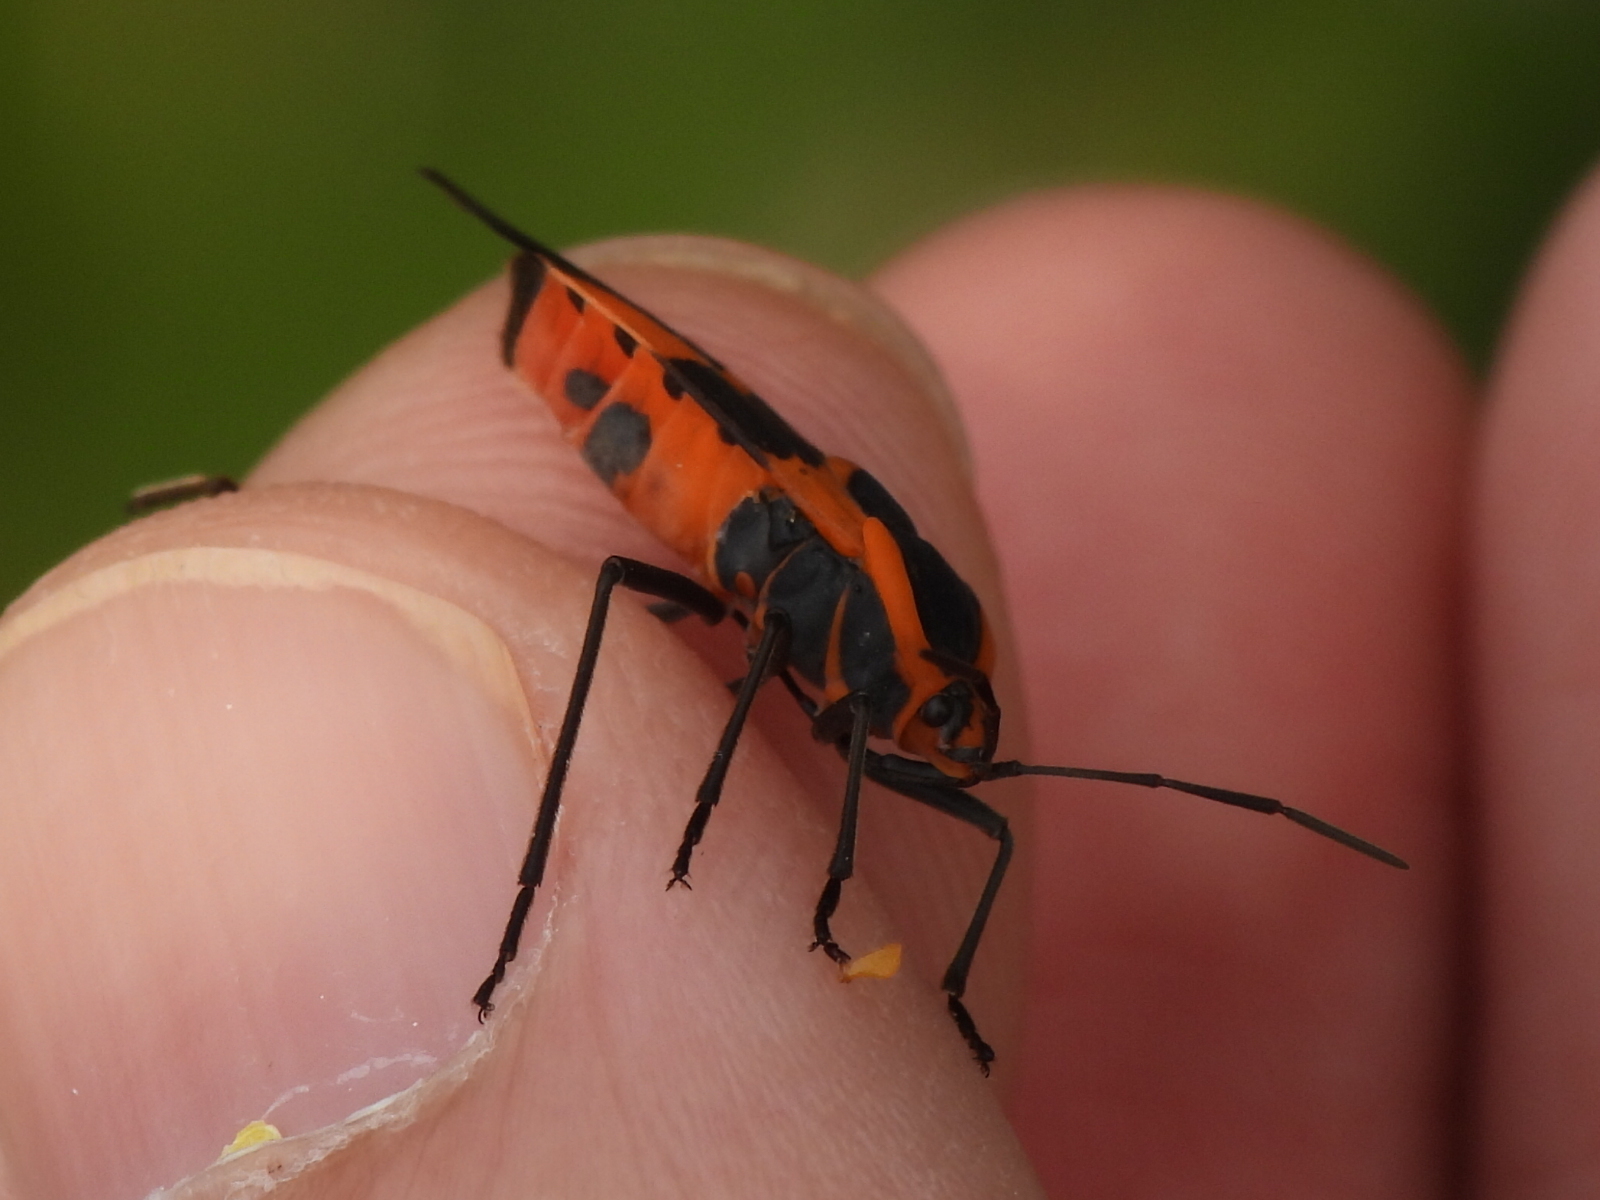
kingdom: Animalia
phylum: Arthropoda
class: Insecta
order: Hemiptera
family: Lygaeidae
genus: Oncopeltus
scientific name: Oncopeltus fasciatus
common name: Large milkweed bug
